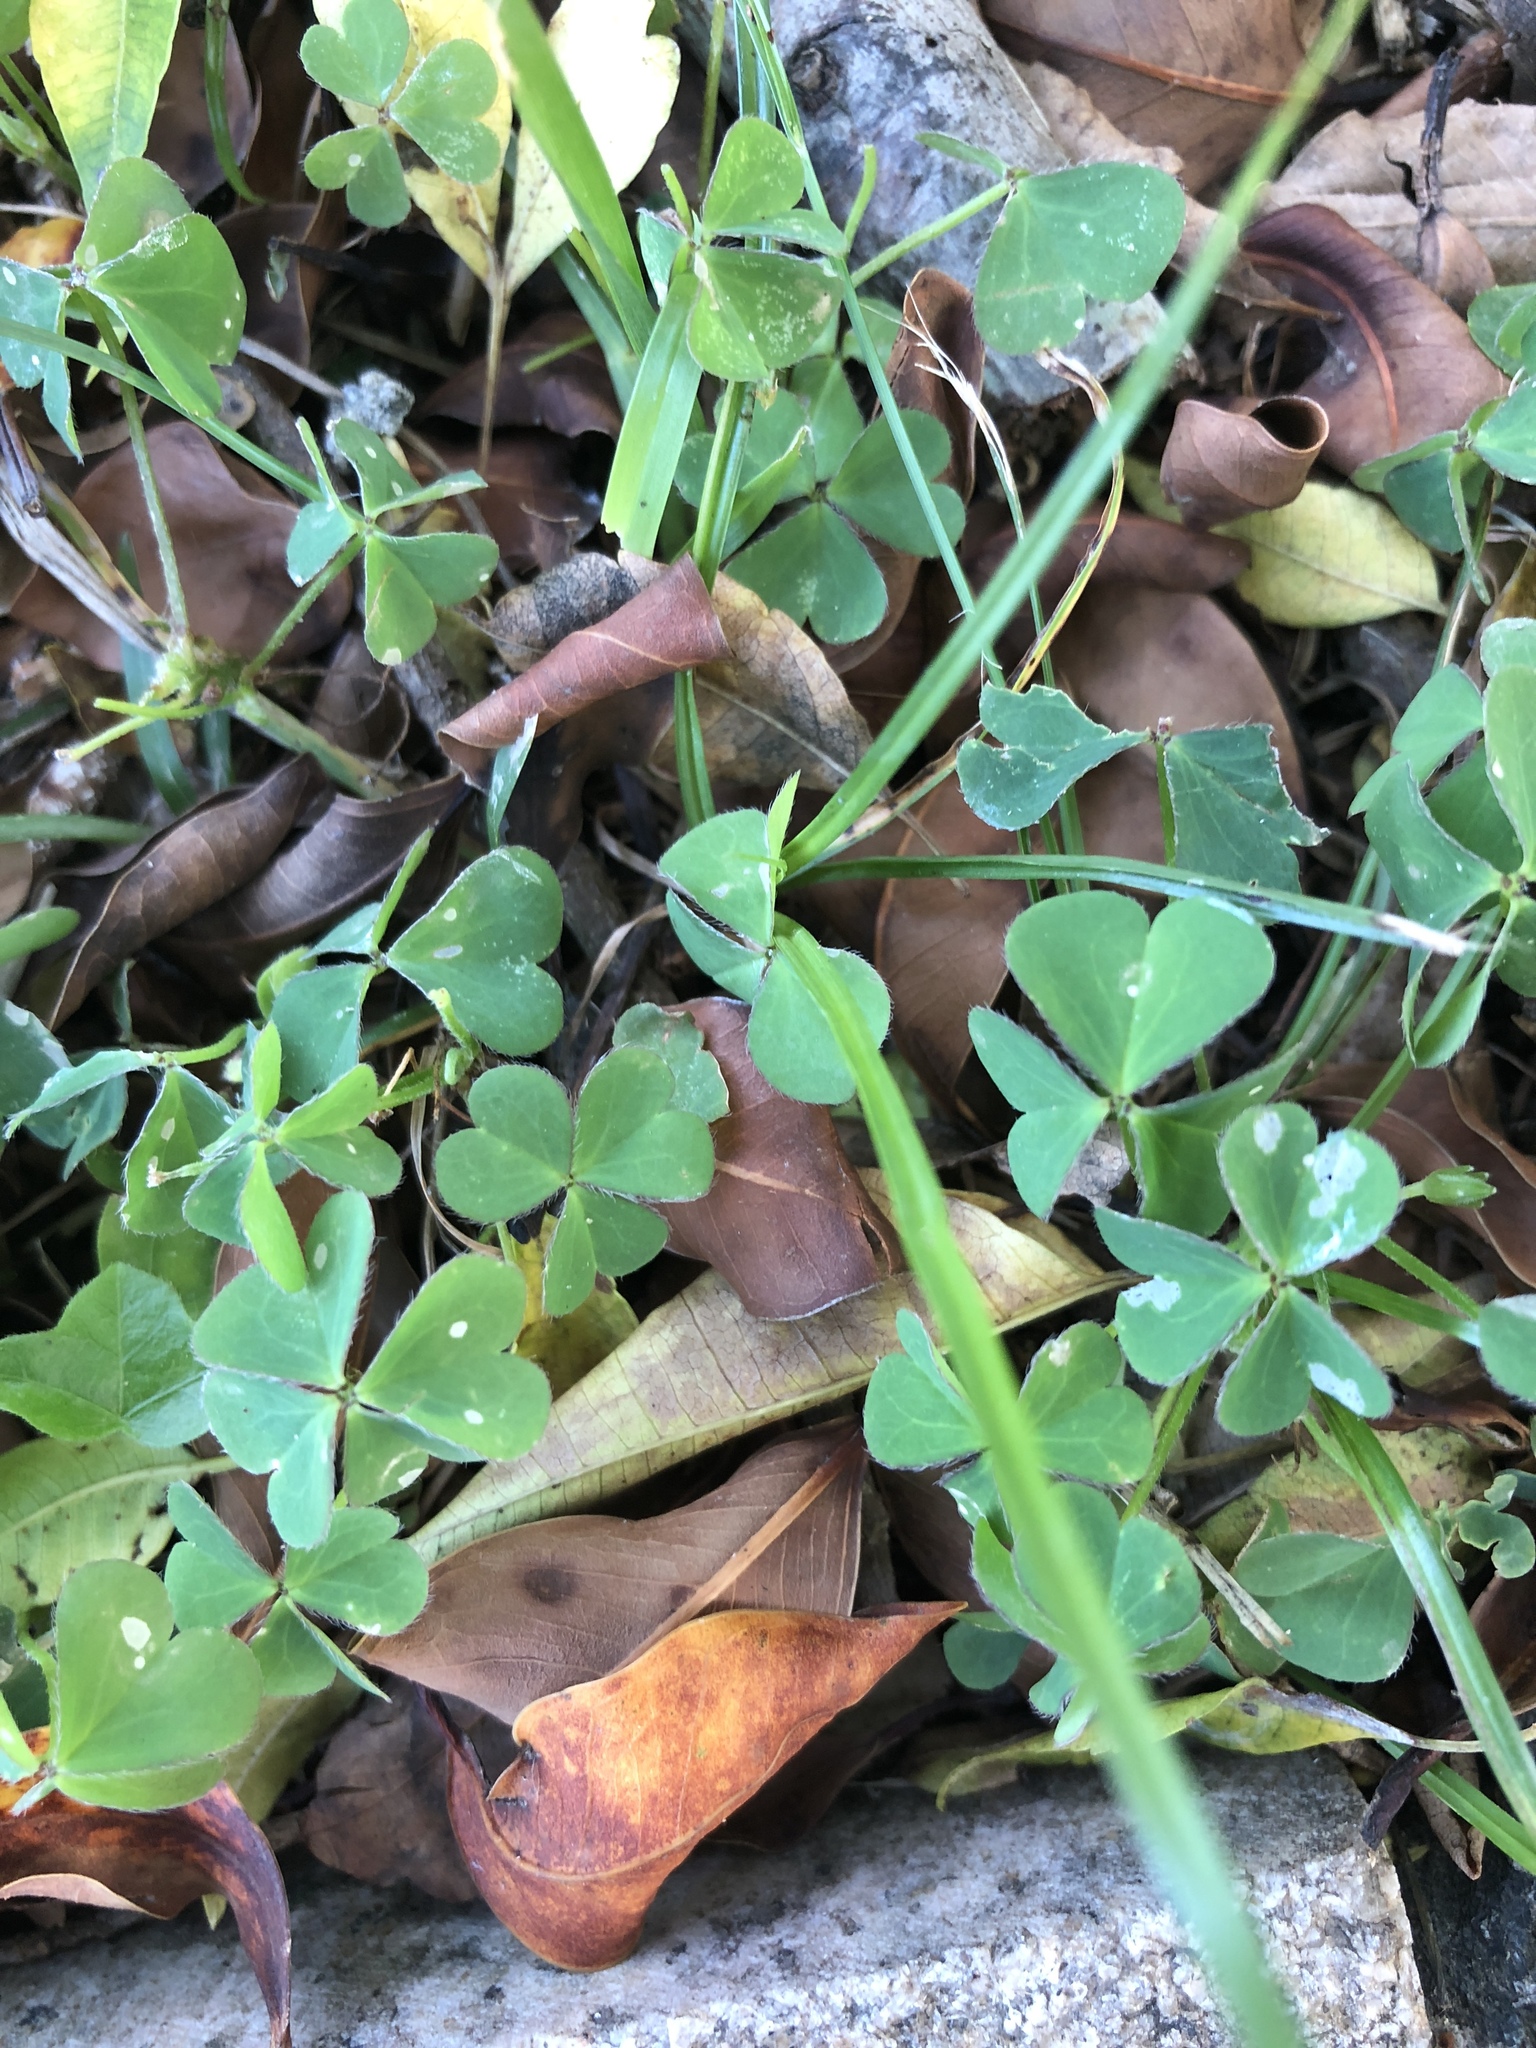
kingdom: Plantae
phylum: Tracheophyta
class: Magnoliopsida
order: Oxalidales
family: Oxalidaceae
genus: Oxalis
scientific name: Oxalis corniculata
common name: Procumbent yellow-sorrel
